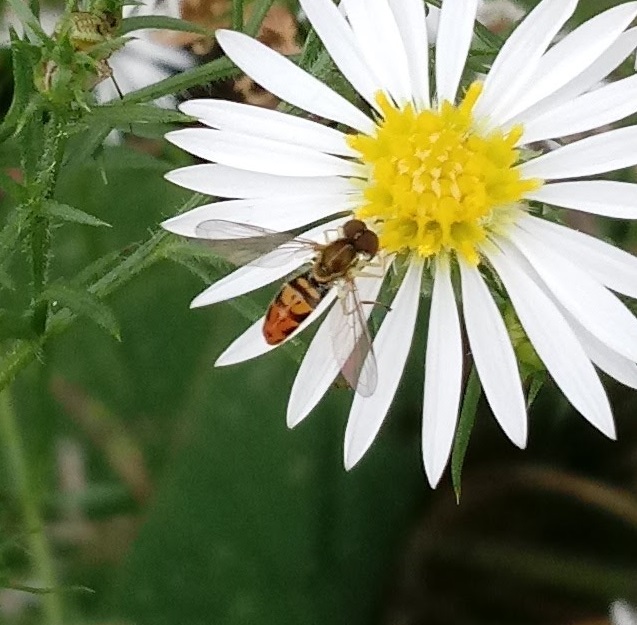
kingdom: Animalia
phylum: Arthropoda
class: Insecta
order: Diptera
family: Syrphidae
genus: Toxomerus
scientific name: Toxomerus marginatus
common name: Syrphid fly
